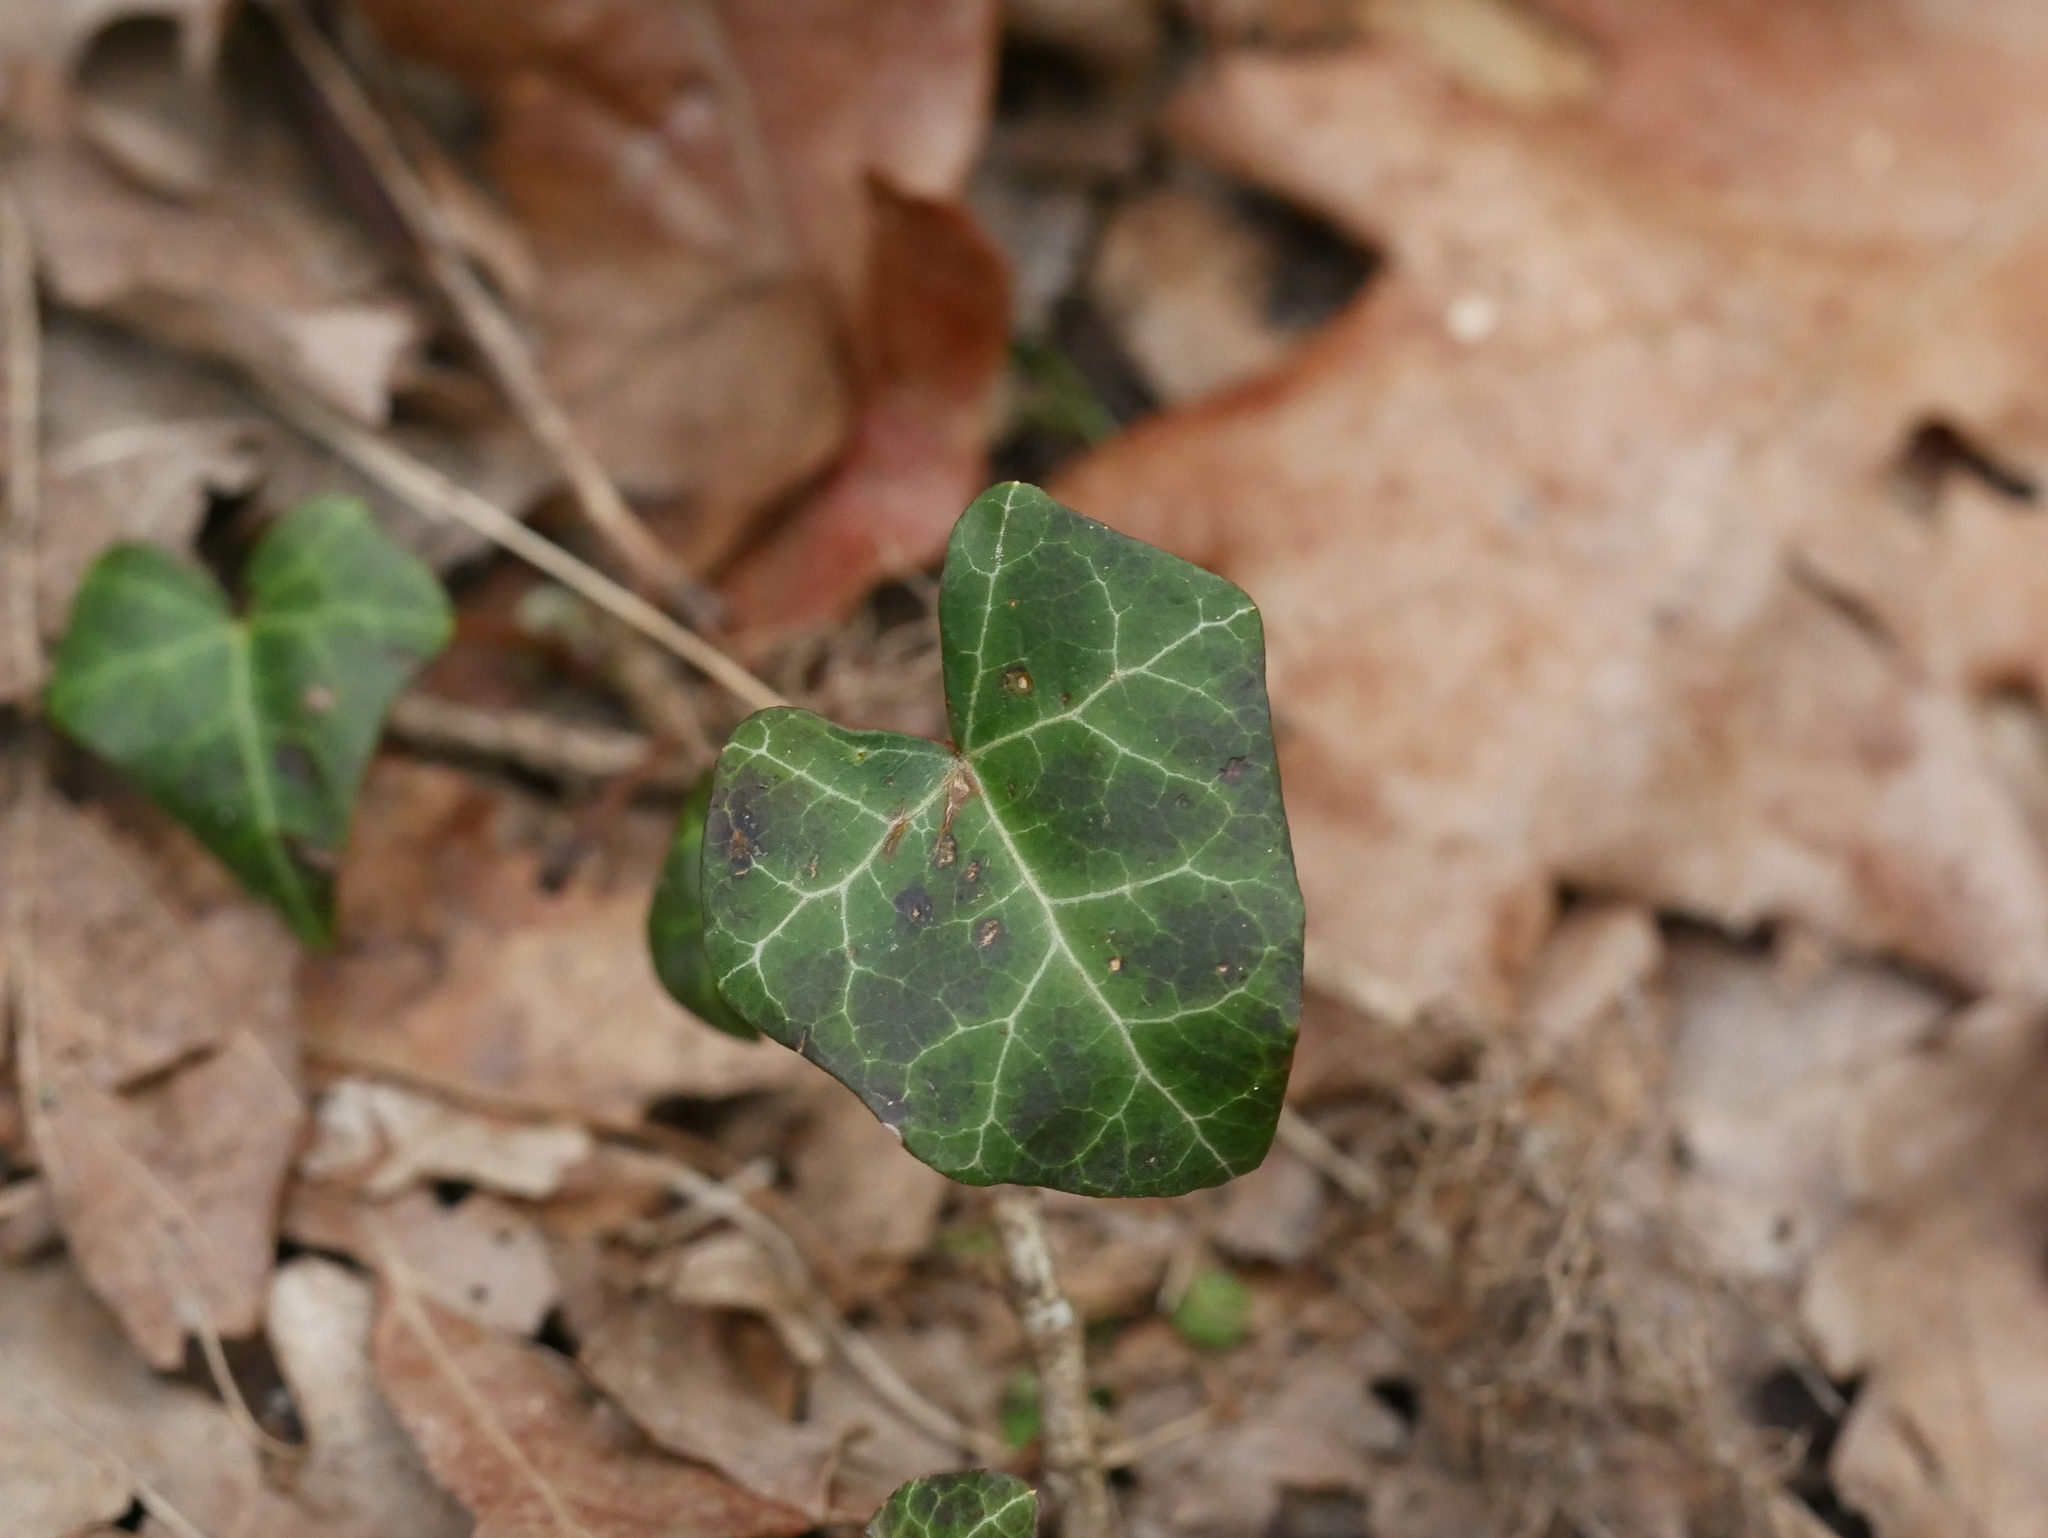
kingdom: Plantae
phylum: Tracheophyta
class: Magnoliopsida
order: Apiales
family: Araliaceae
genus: Hedera
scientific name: Hedera helix
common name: Ivy
